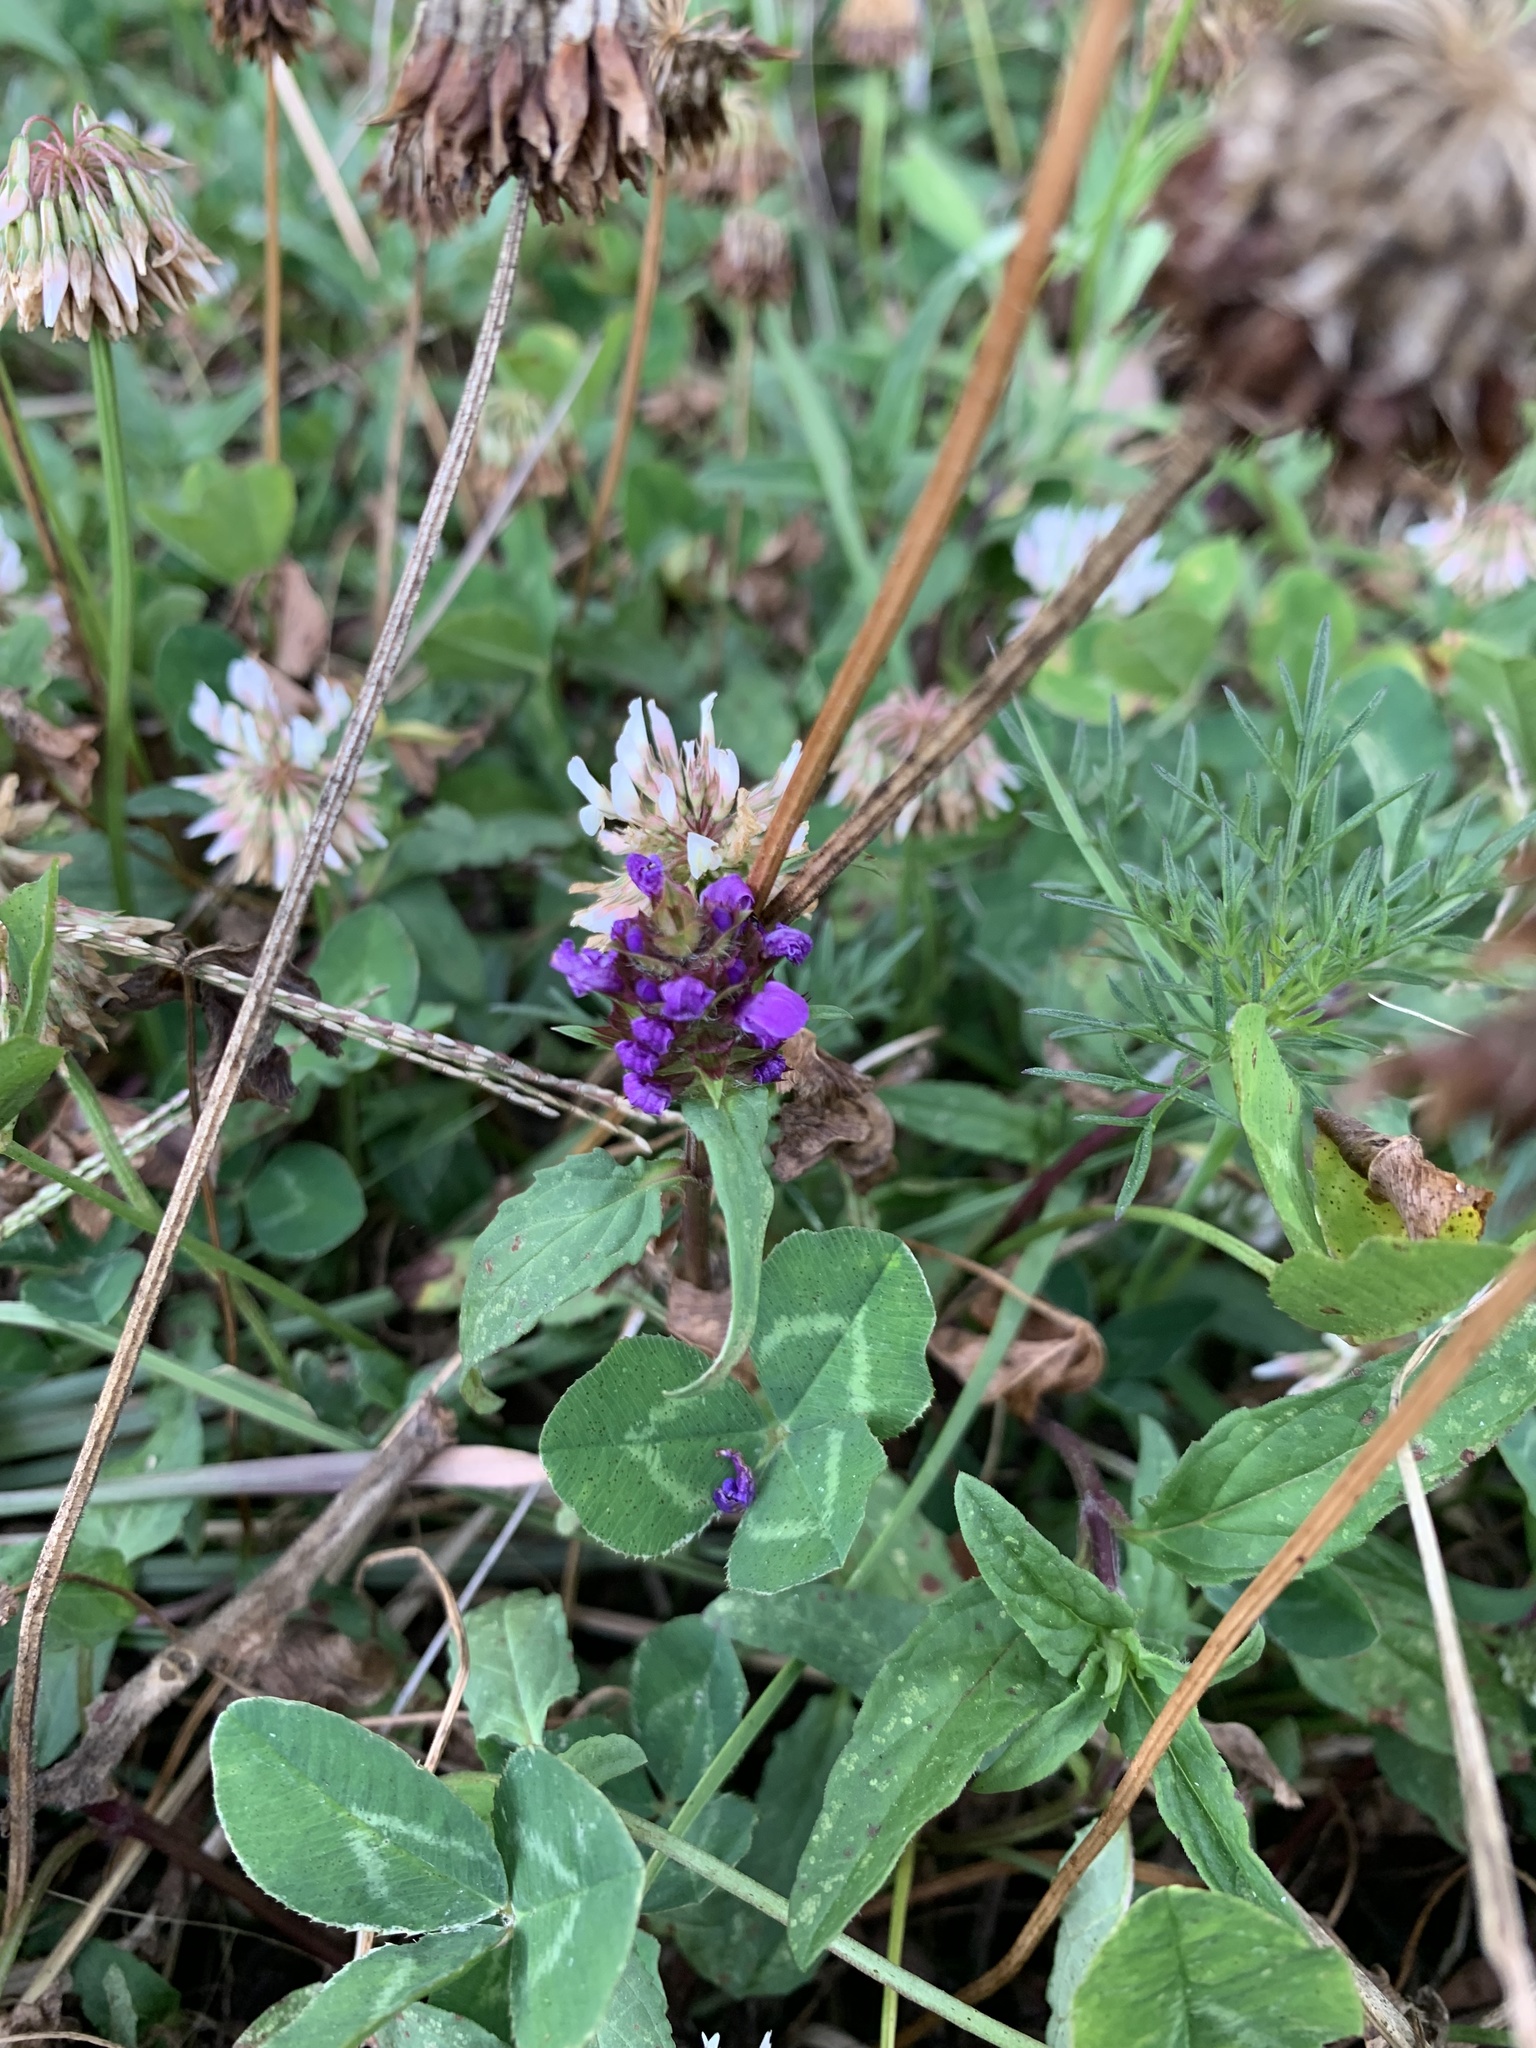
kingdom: Plantae
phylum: Tracheophyta
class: Magnoliopsida
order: Lamiales
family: Lamiaceae
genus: Prunella
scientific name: Prunella vulgaris
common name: Heal-all
